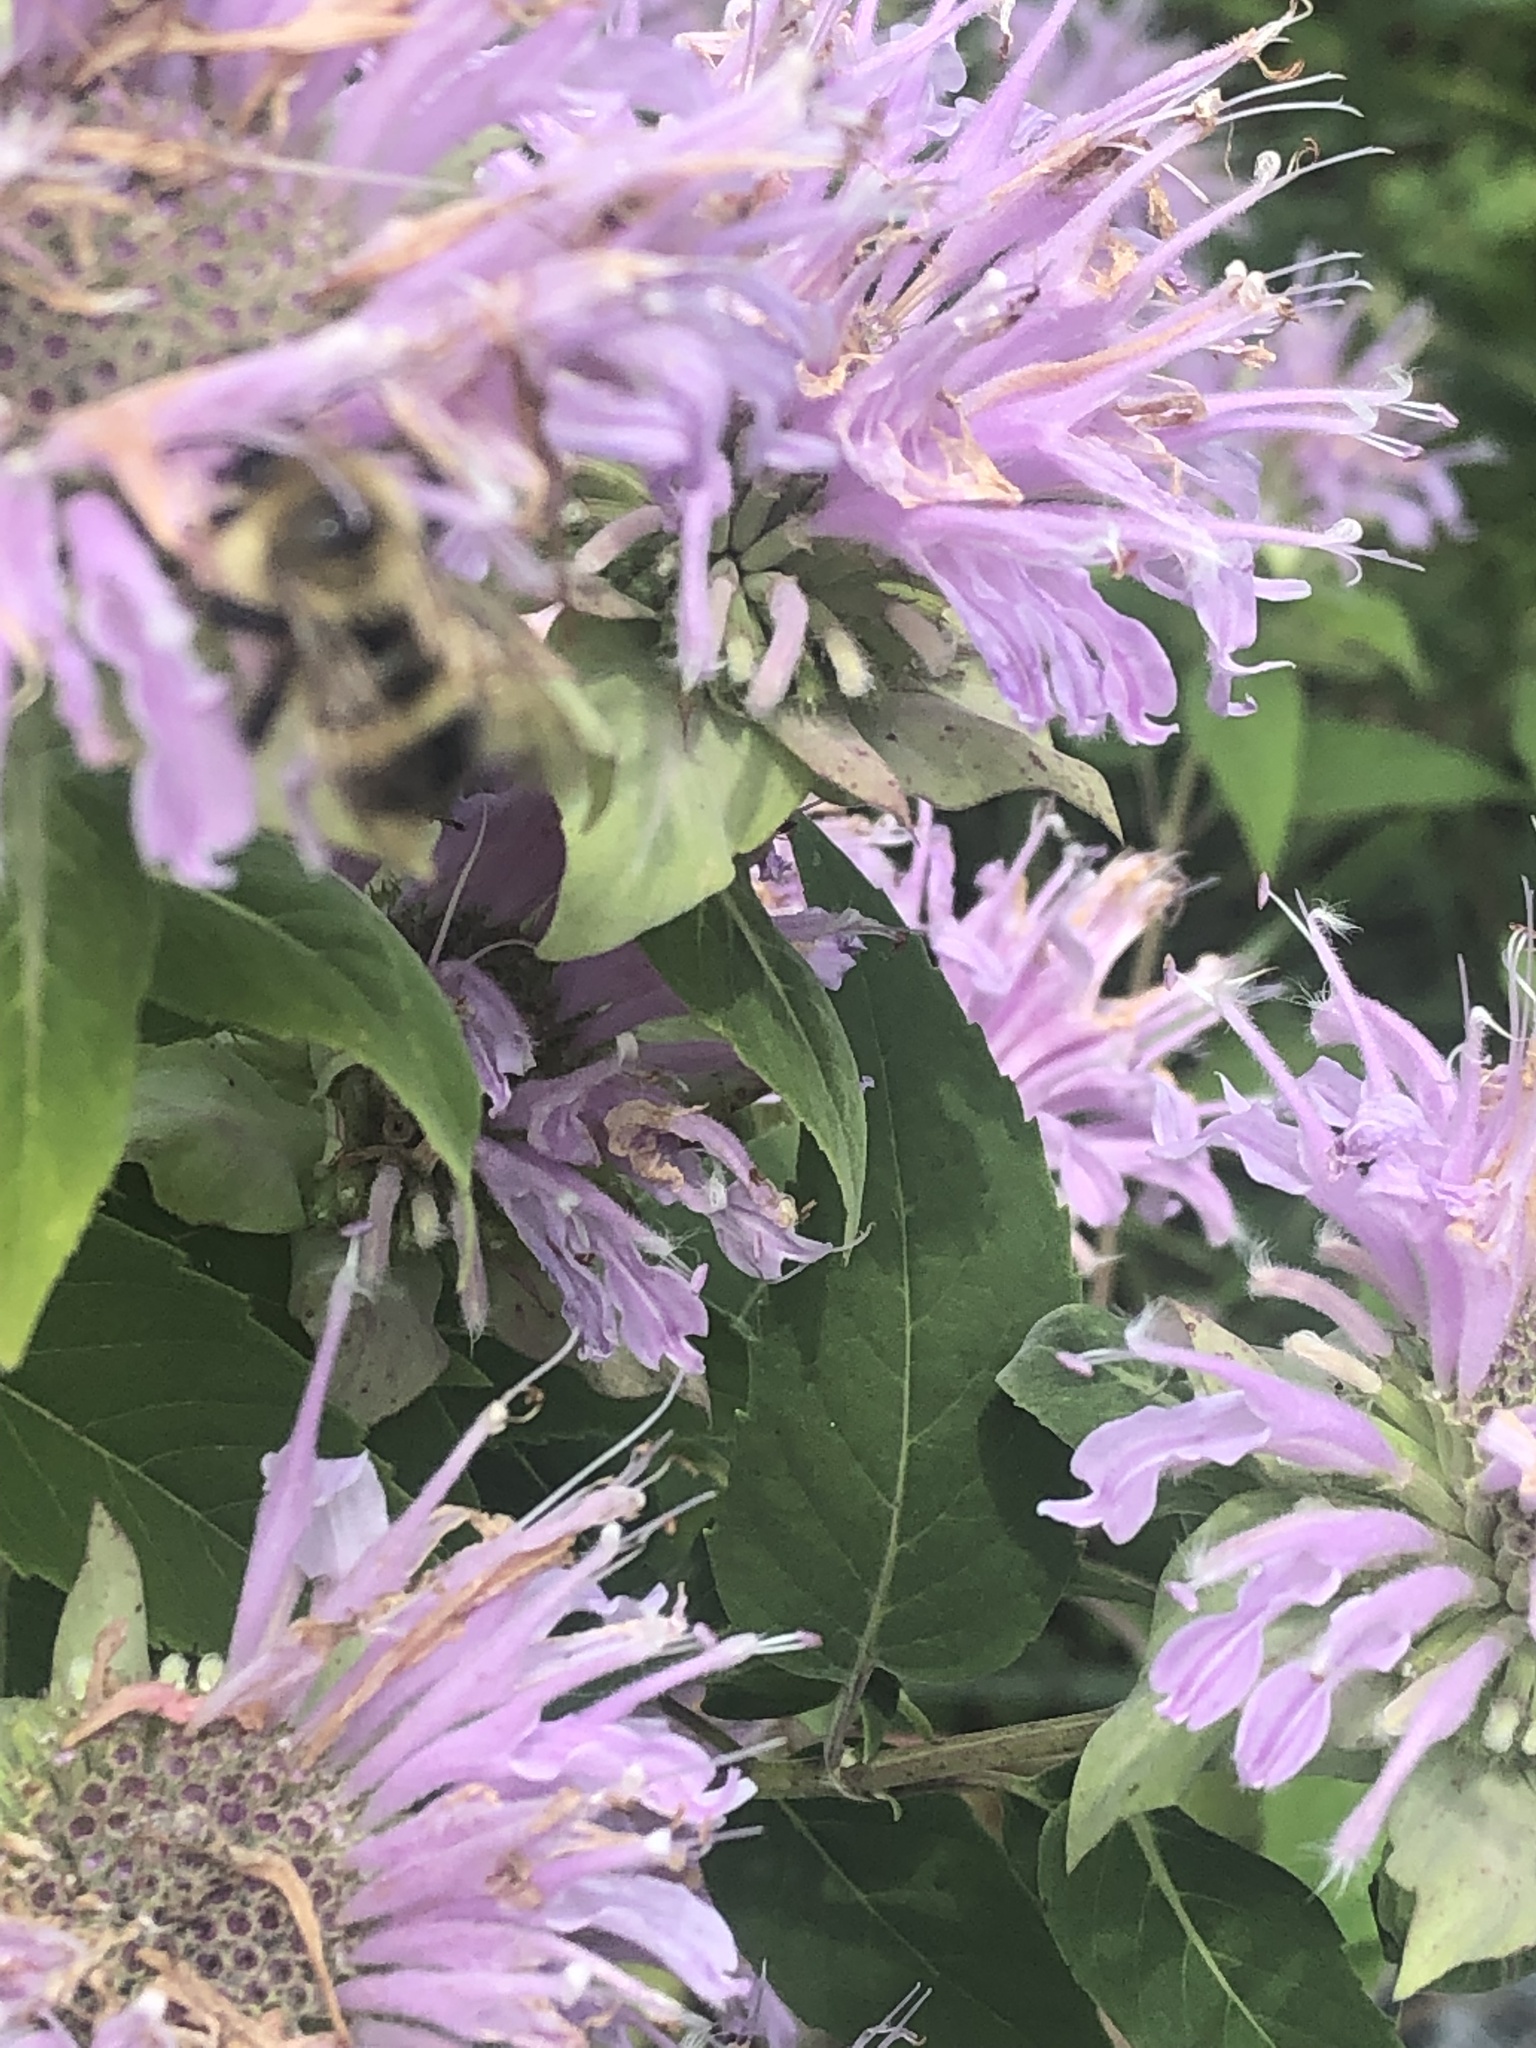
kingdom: Animalia
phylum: Arthropoda
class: Insecta
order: Hymenoptera
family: Apidae
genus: Pyrobombus
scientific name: Pyrobombus
